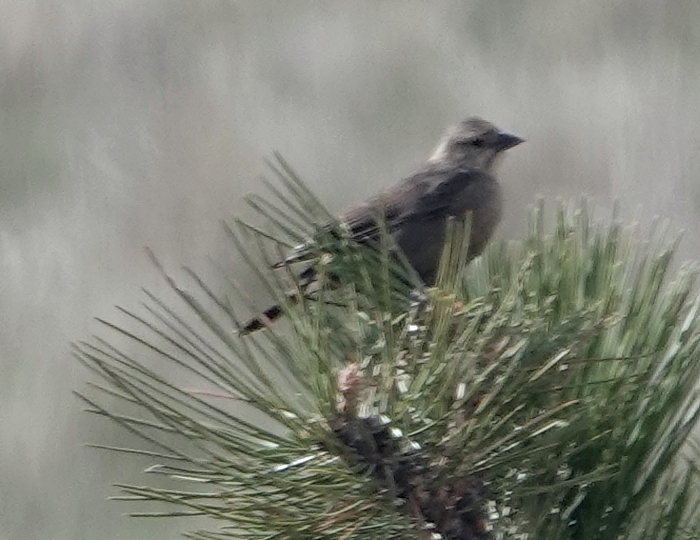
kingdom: Animalia
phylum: Chordata
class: Aves
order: Passeriformes
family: Icteridae
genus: Molothrus
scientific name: Molothrus ater
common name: Brown-headed cowbird
